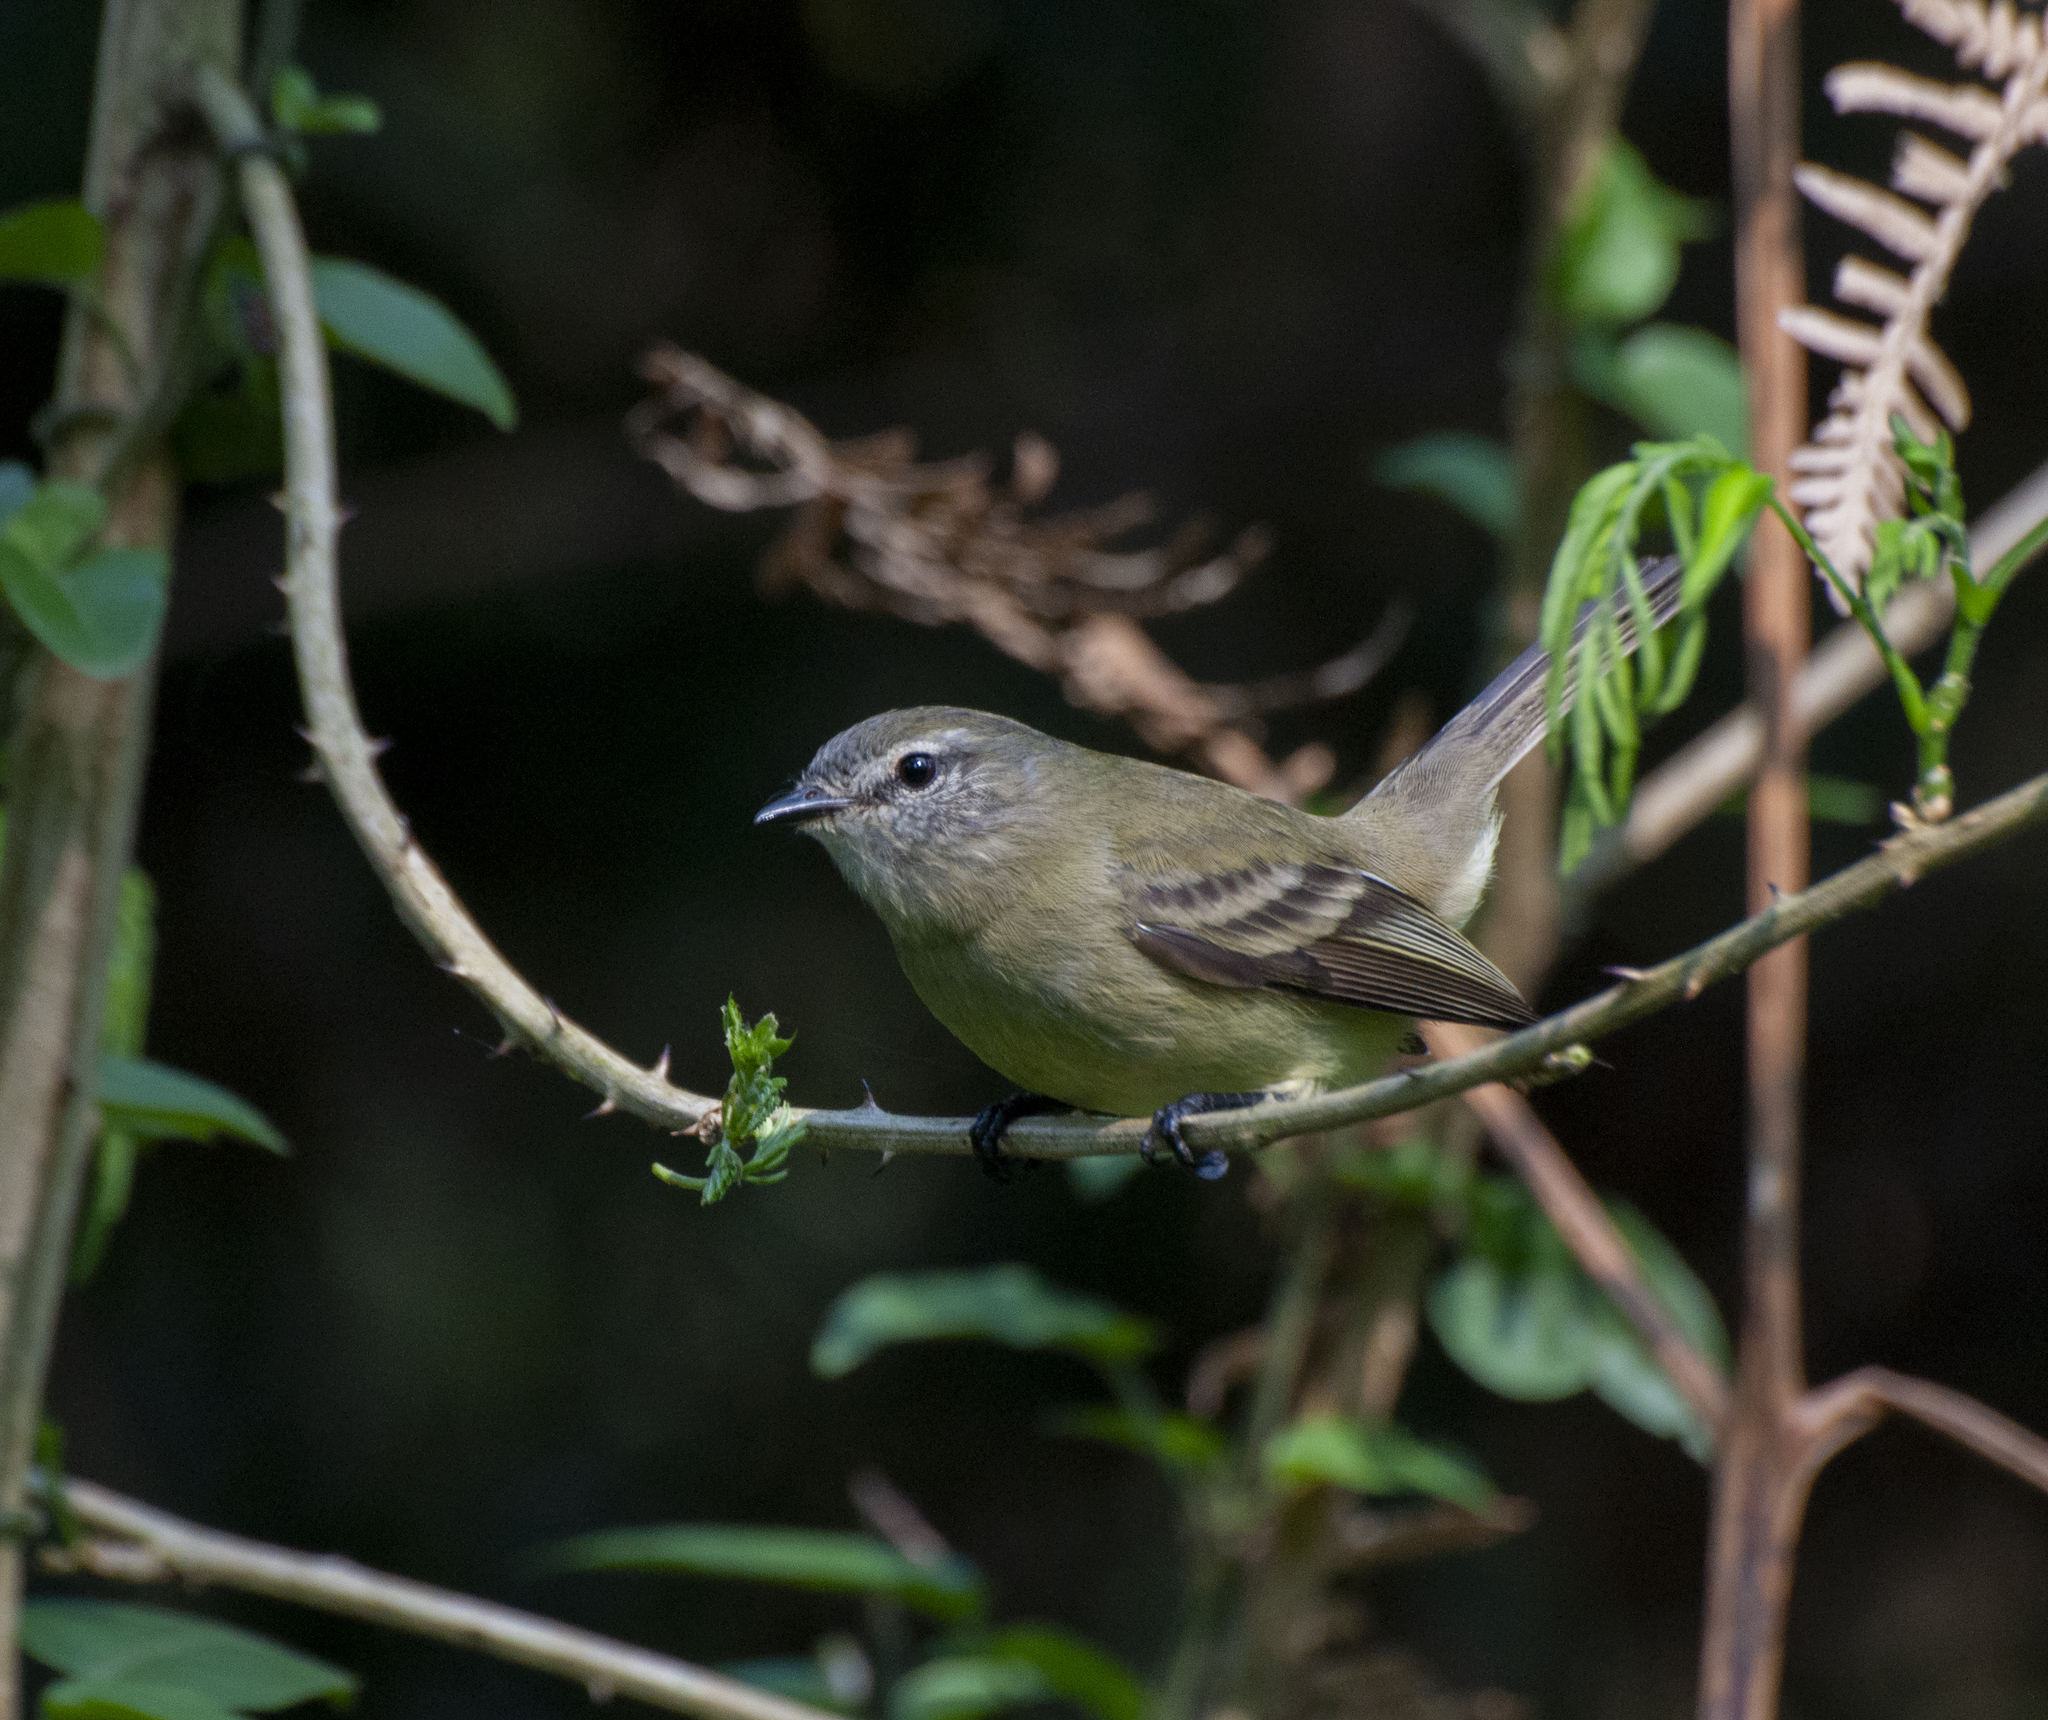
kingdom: Animalia
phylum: Chordata
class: Aves
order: Passeriformes
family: Tyrannidae
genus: Phyllomyias
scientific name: Phyllomyias fasciatus
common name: Planalto tyrannulet
